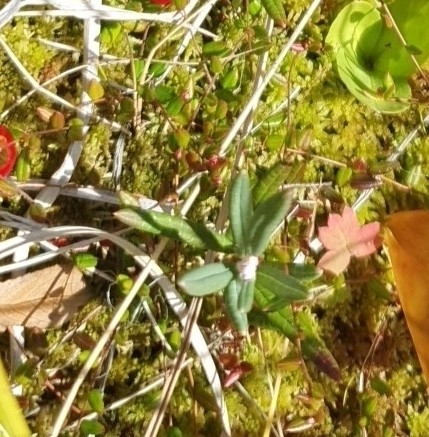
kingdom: Plantae
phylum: Tracheophyta
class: Magnoliopsida
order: Ericales
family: Ericaceae
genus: Andromeda
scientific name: Andromeda polifolia
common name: Bog-rosemary
